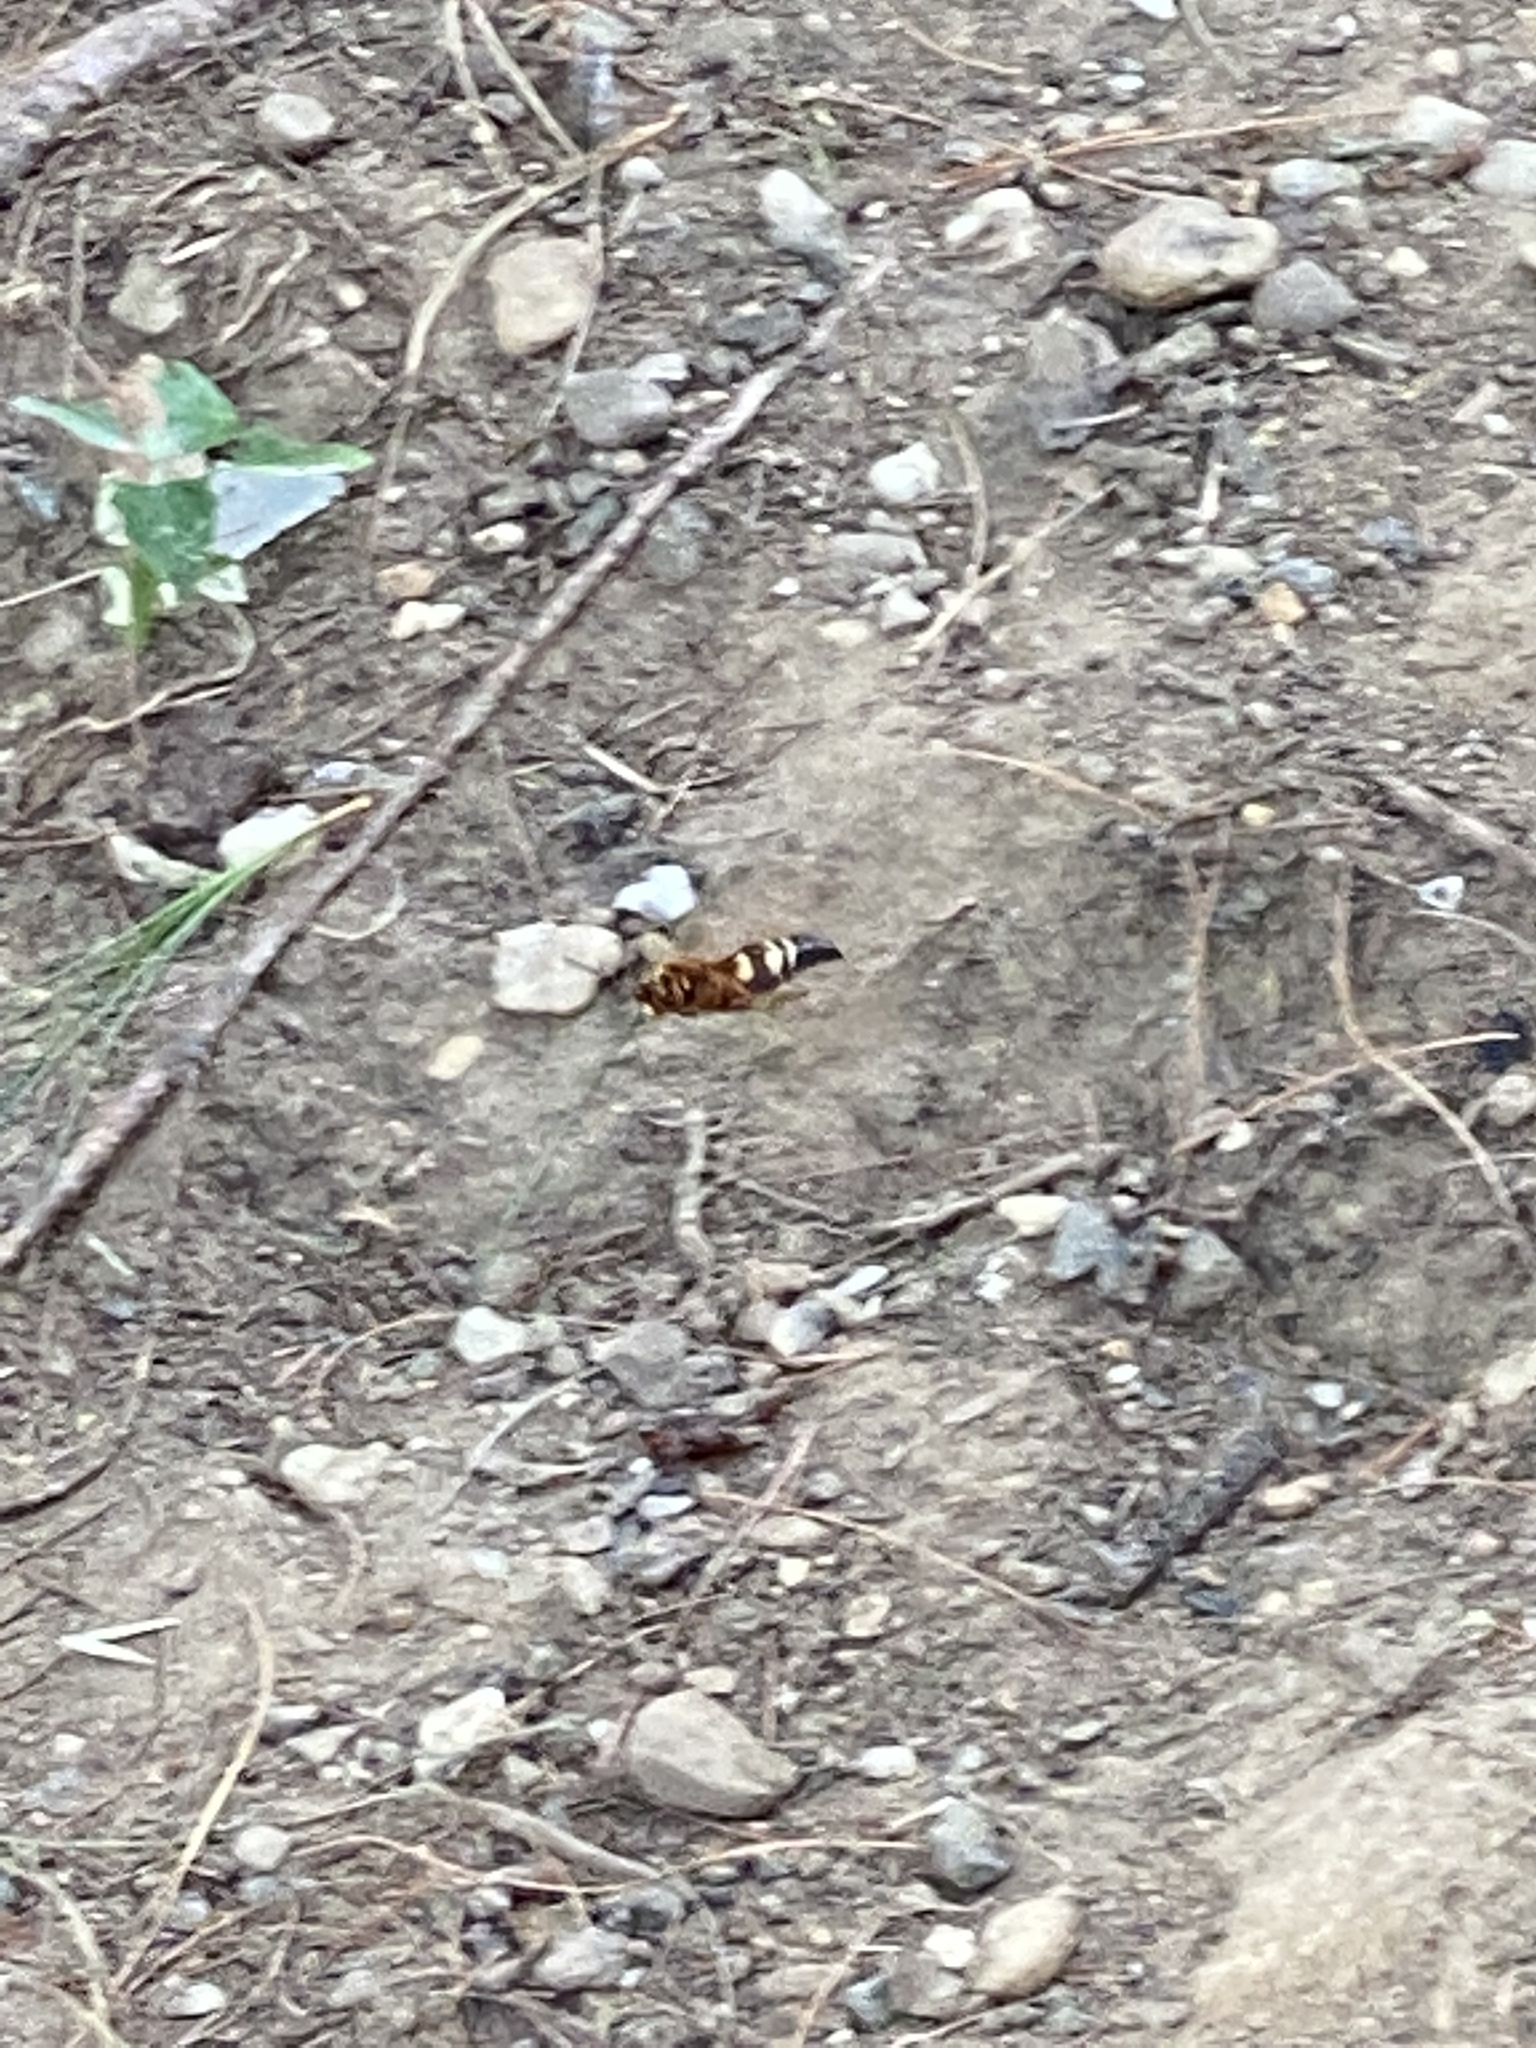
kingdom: Animalia
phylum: Arthropoda
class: Insecta
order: Hymenoptera
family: Crabronidae
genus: Sphecius
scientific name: Sphecius speciosus
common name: Cicada killer
